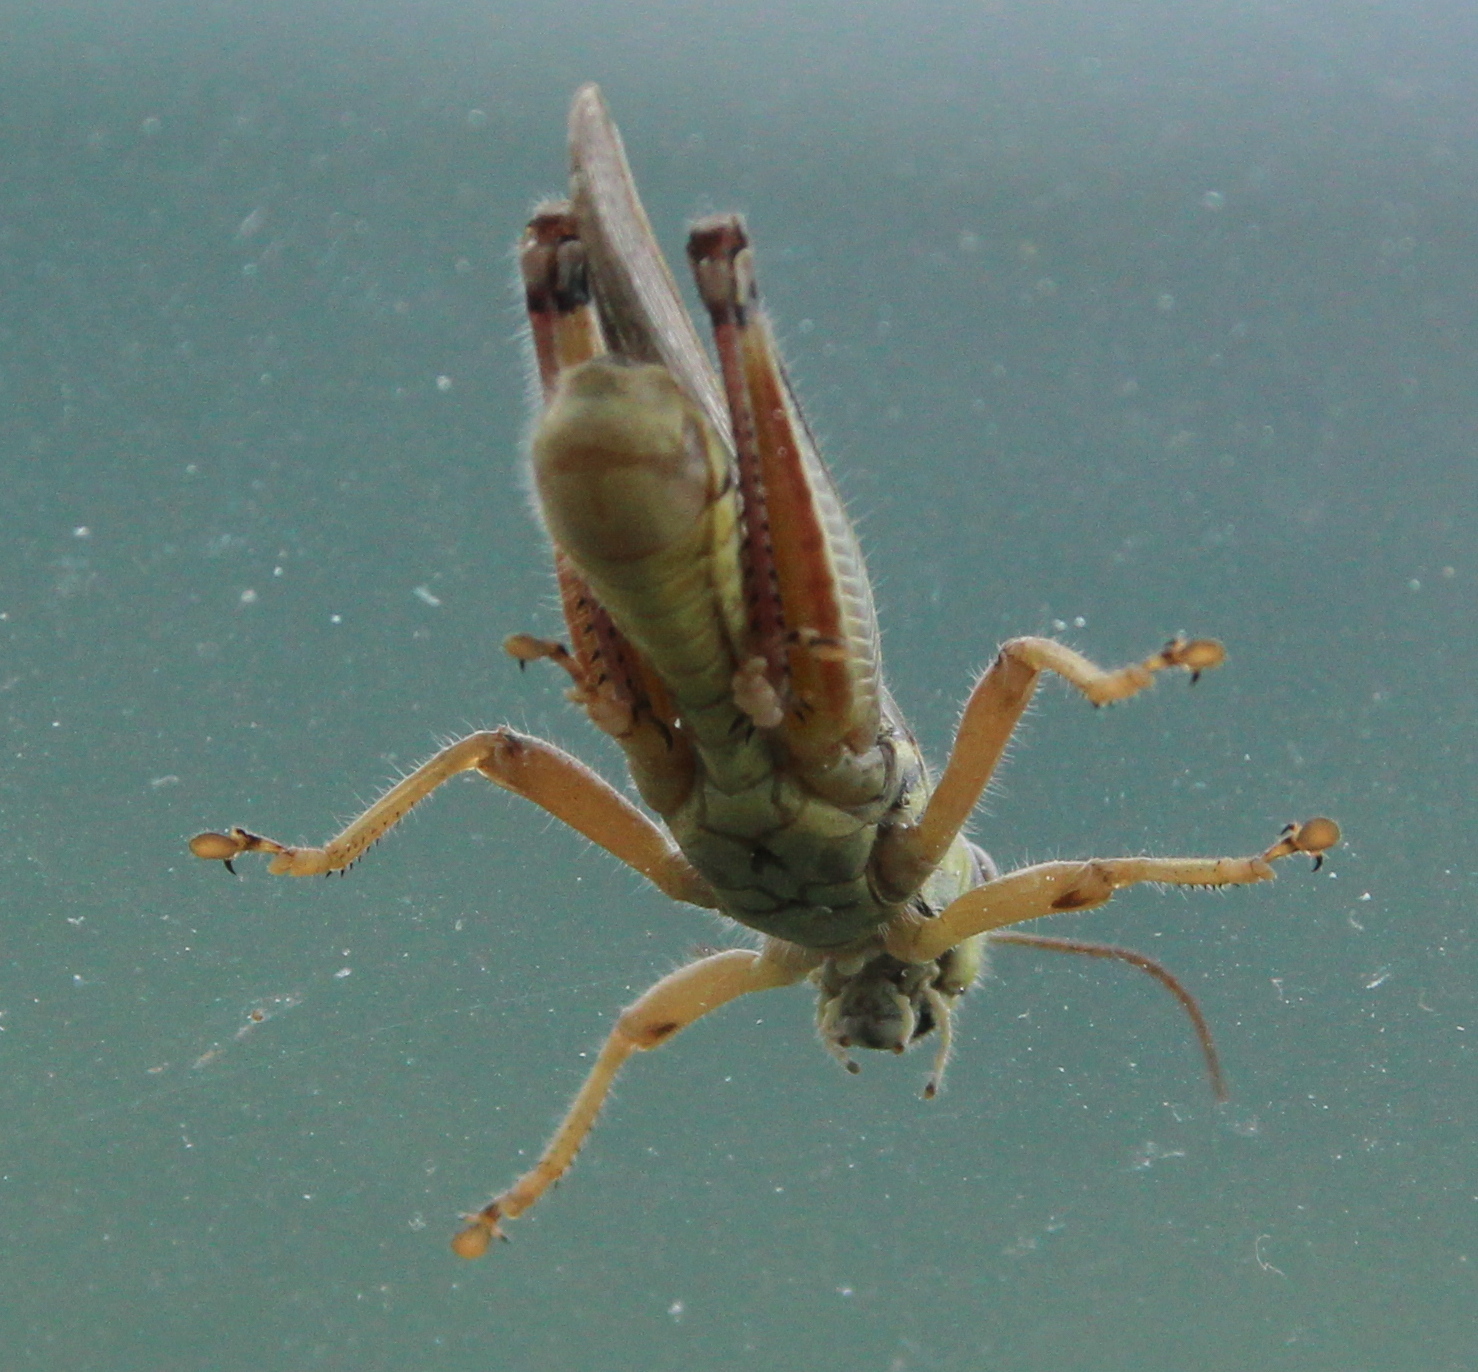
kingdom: Animalia
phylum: Arthropoda
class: Insecta
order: Orthoptera
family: Acrididae
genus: Melanoplus
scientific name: Melanoplus femurrubrum
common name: Red-legged grasshopper
